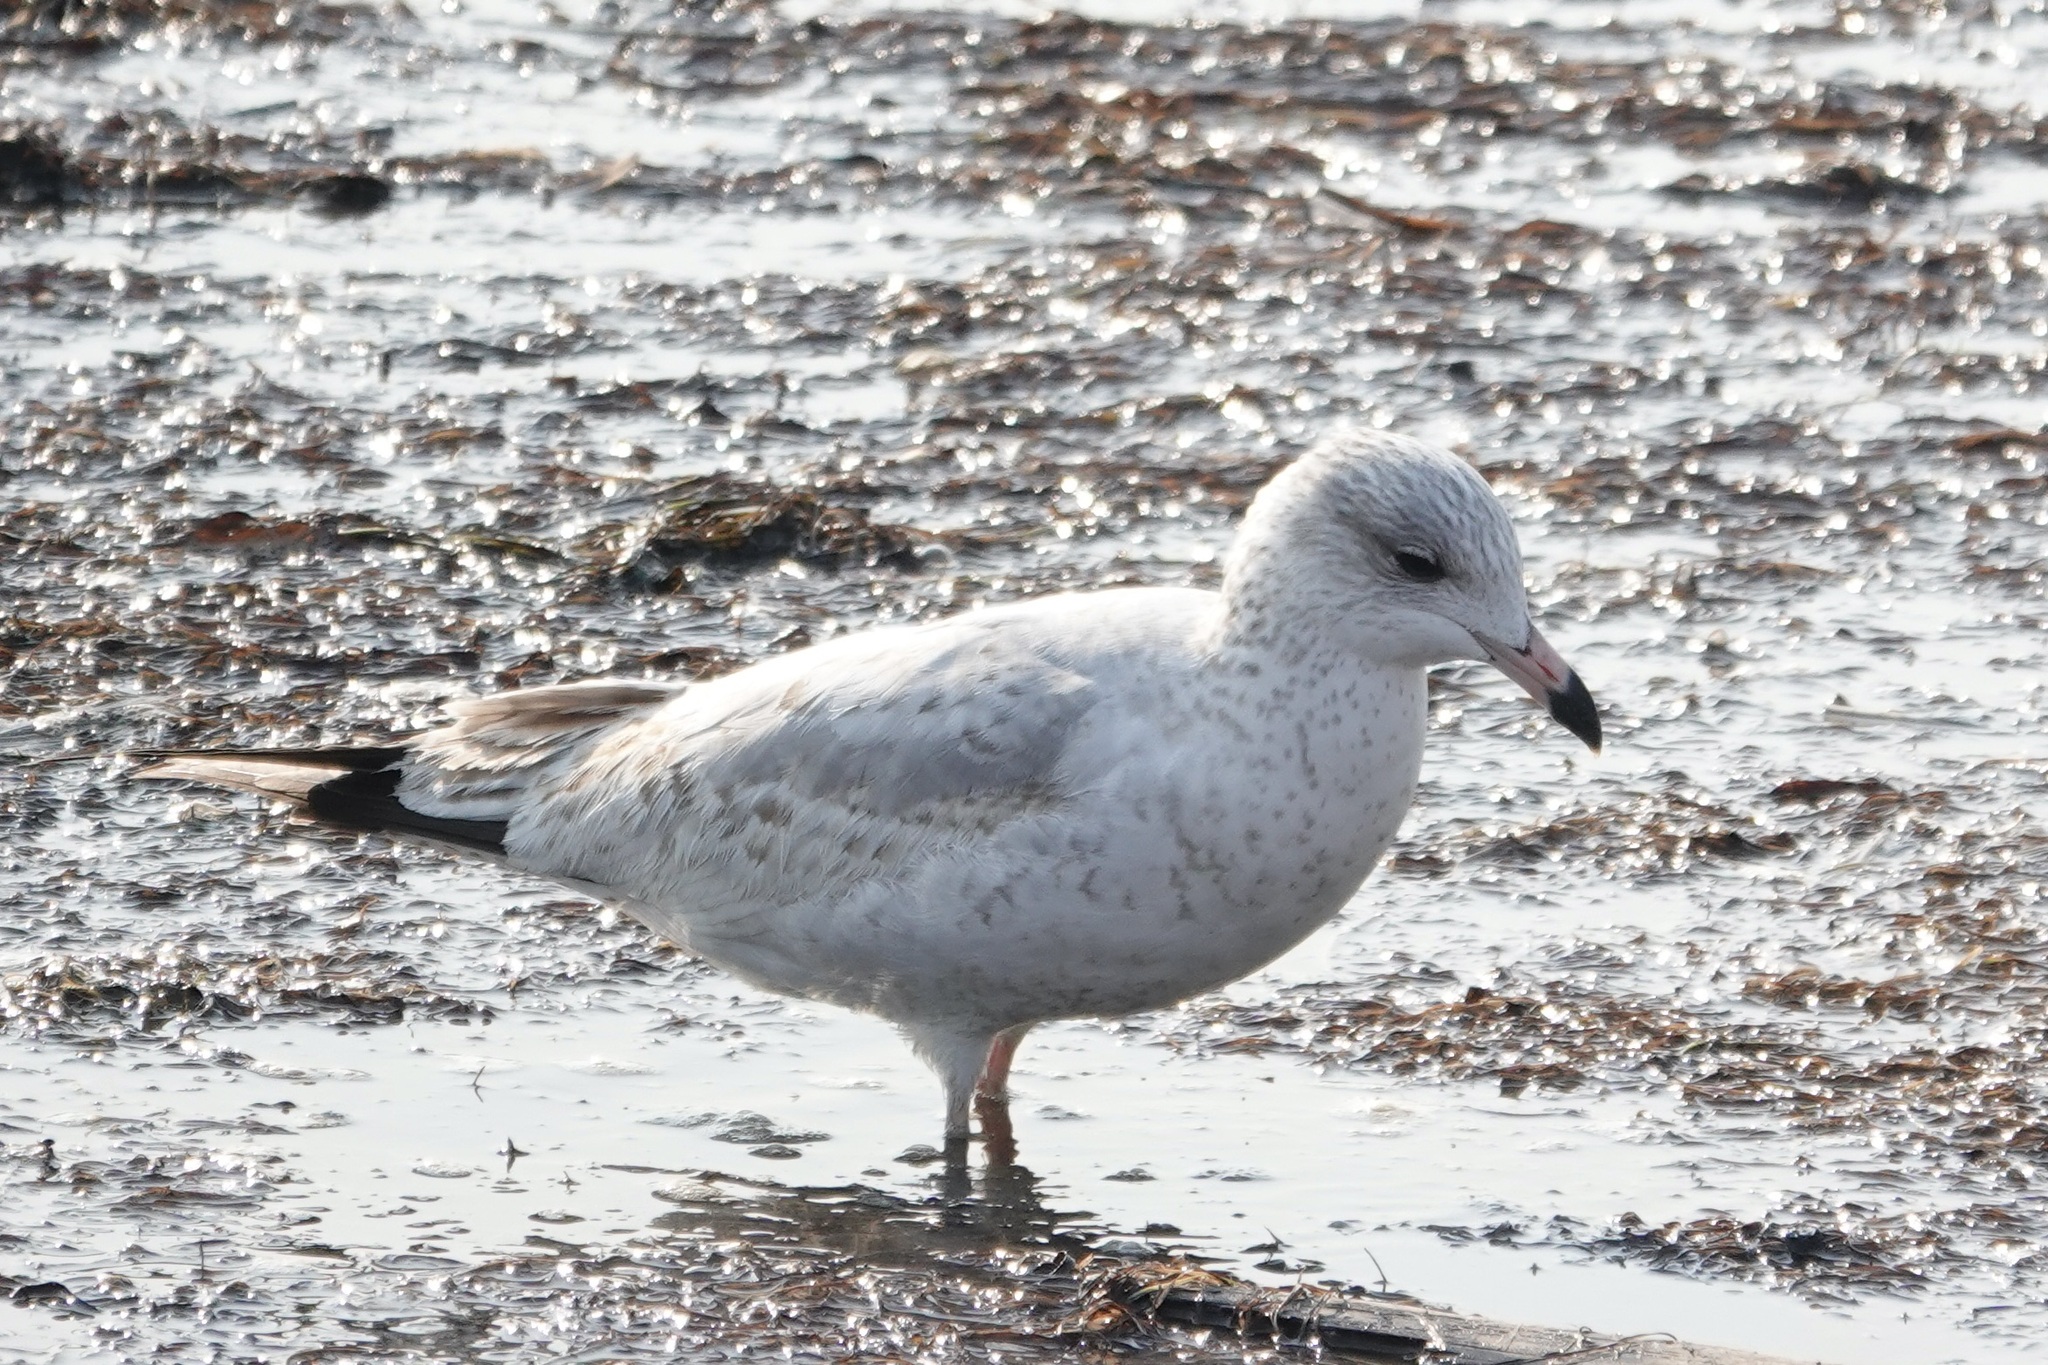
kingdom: Animalia
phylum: Chordata
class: Aves
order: Charadriiformes
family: Laridae
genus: Larus
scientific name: Larus delawarensis
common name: Ring-billed gull
